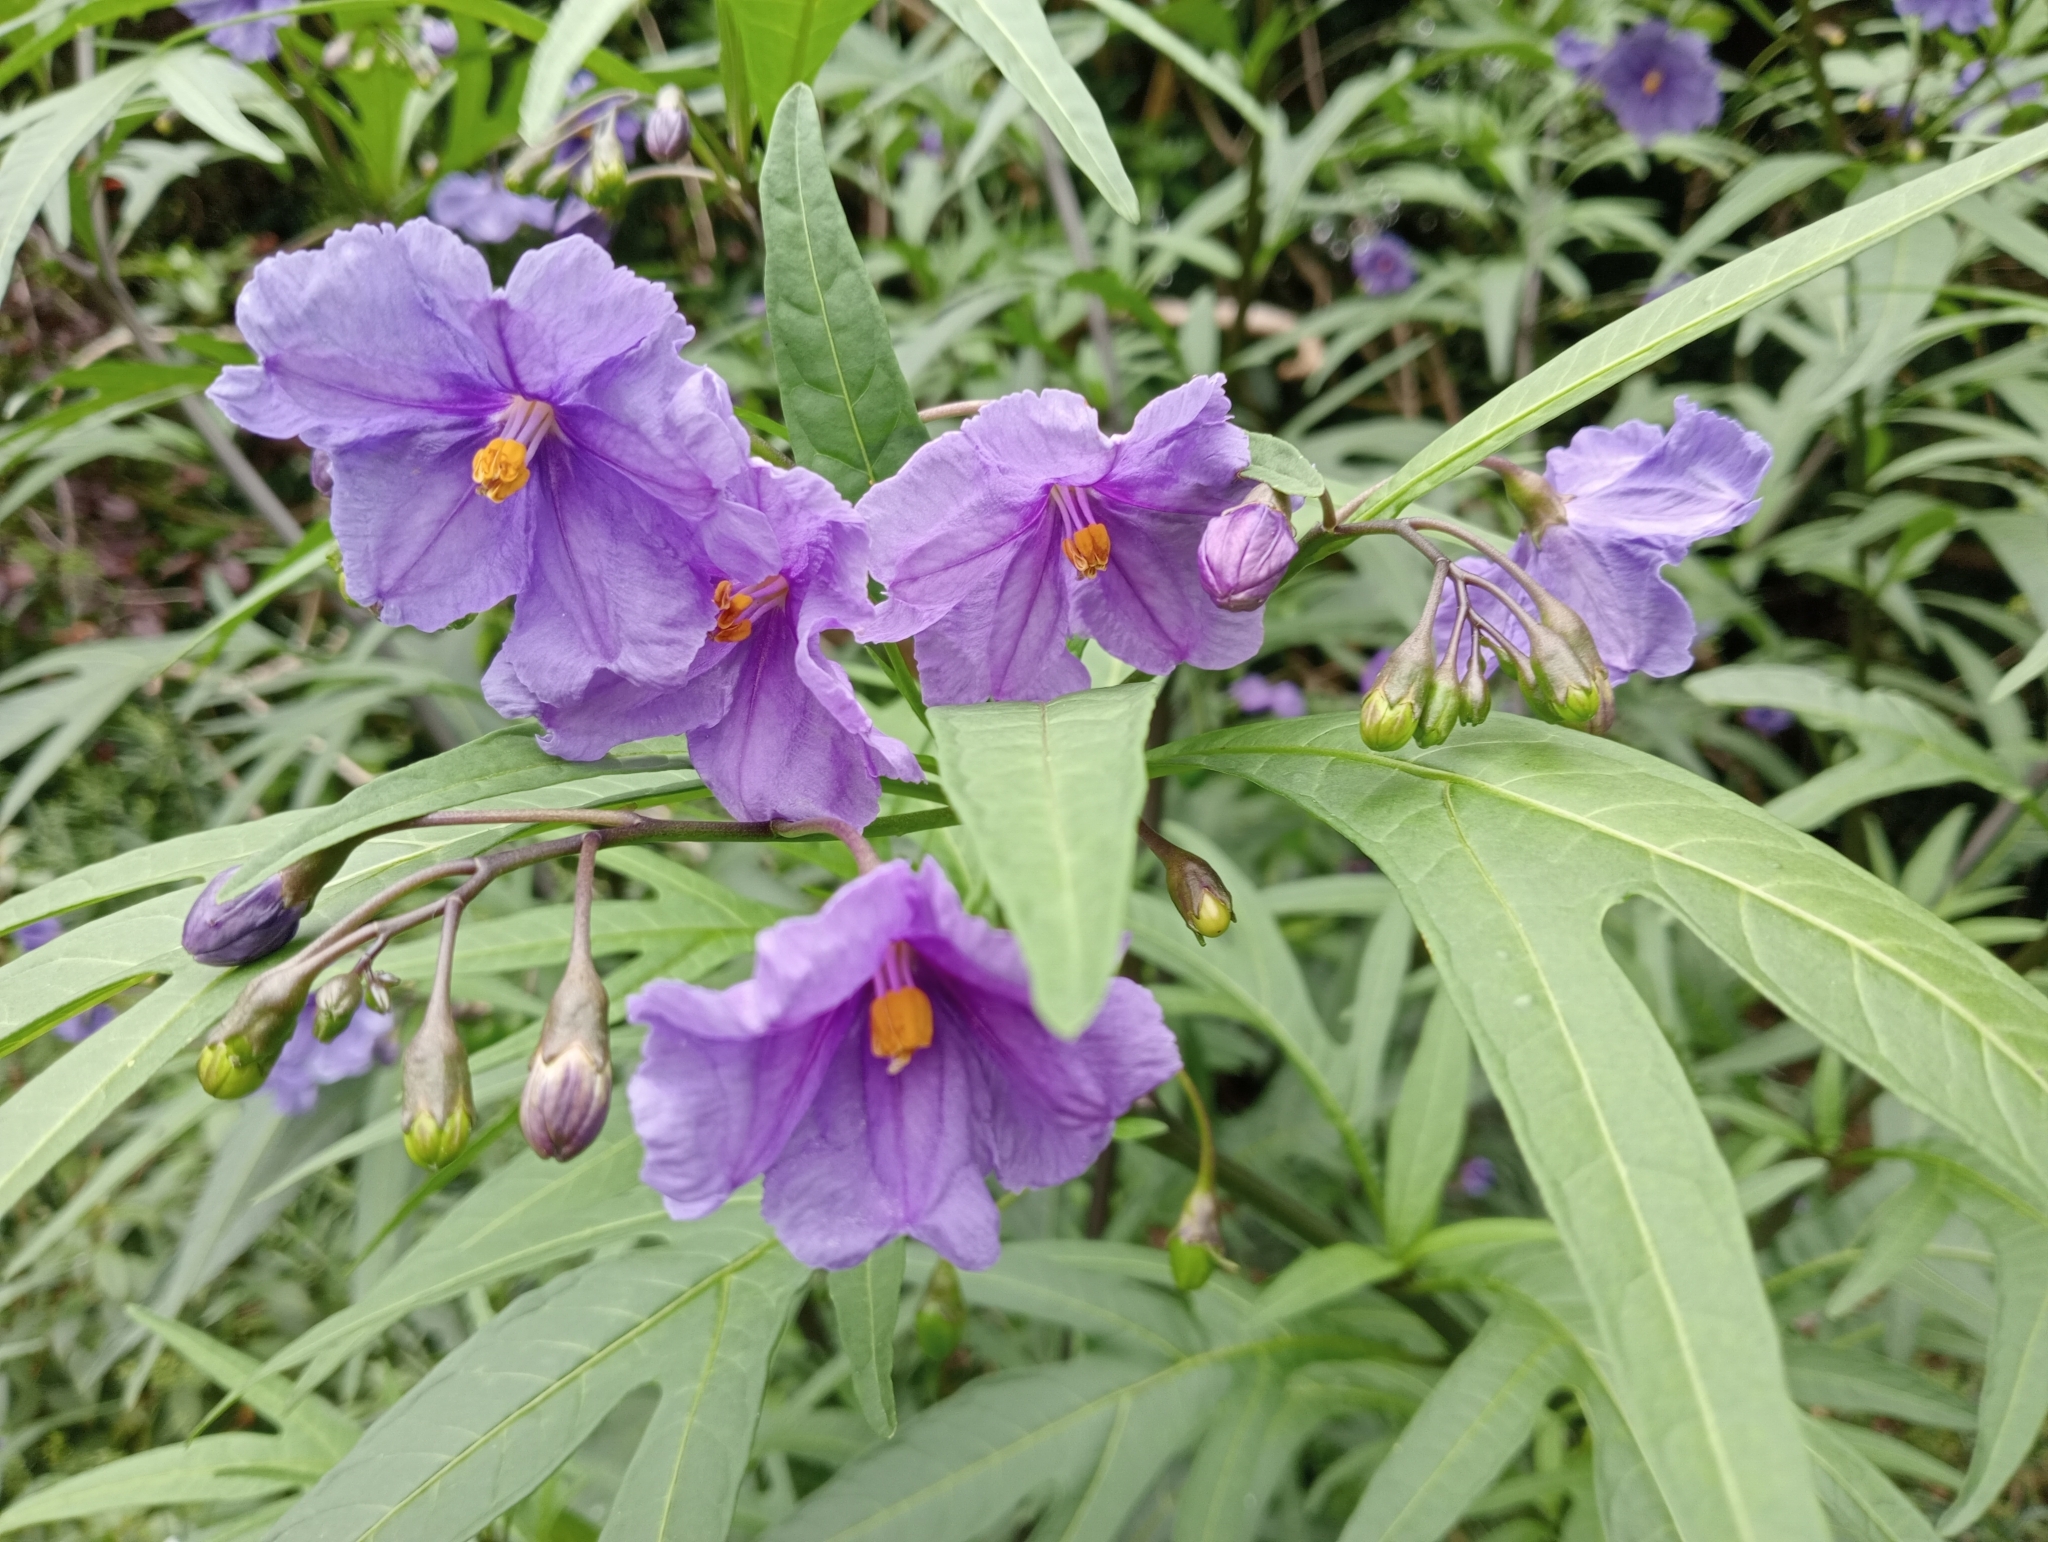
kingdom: Plantae
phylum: Tracheophyta
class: Magnoliopsida
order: Solanales
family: Solanaceae
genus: Solanum
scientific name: Solanum laciniatum
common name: Kangaroo-apple
